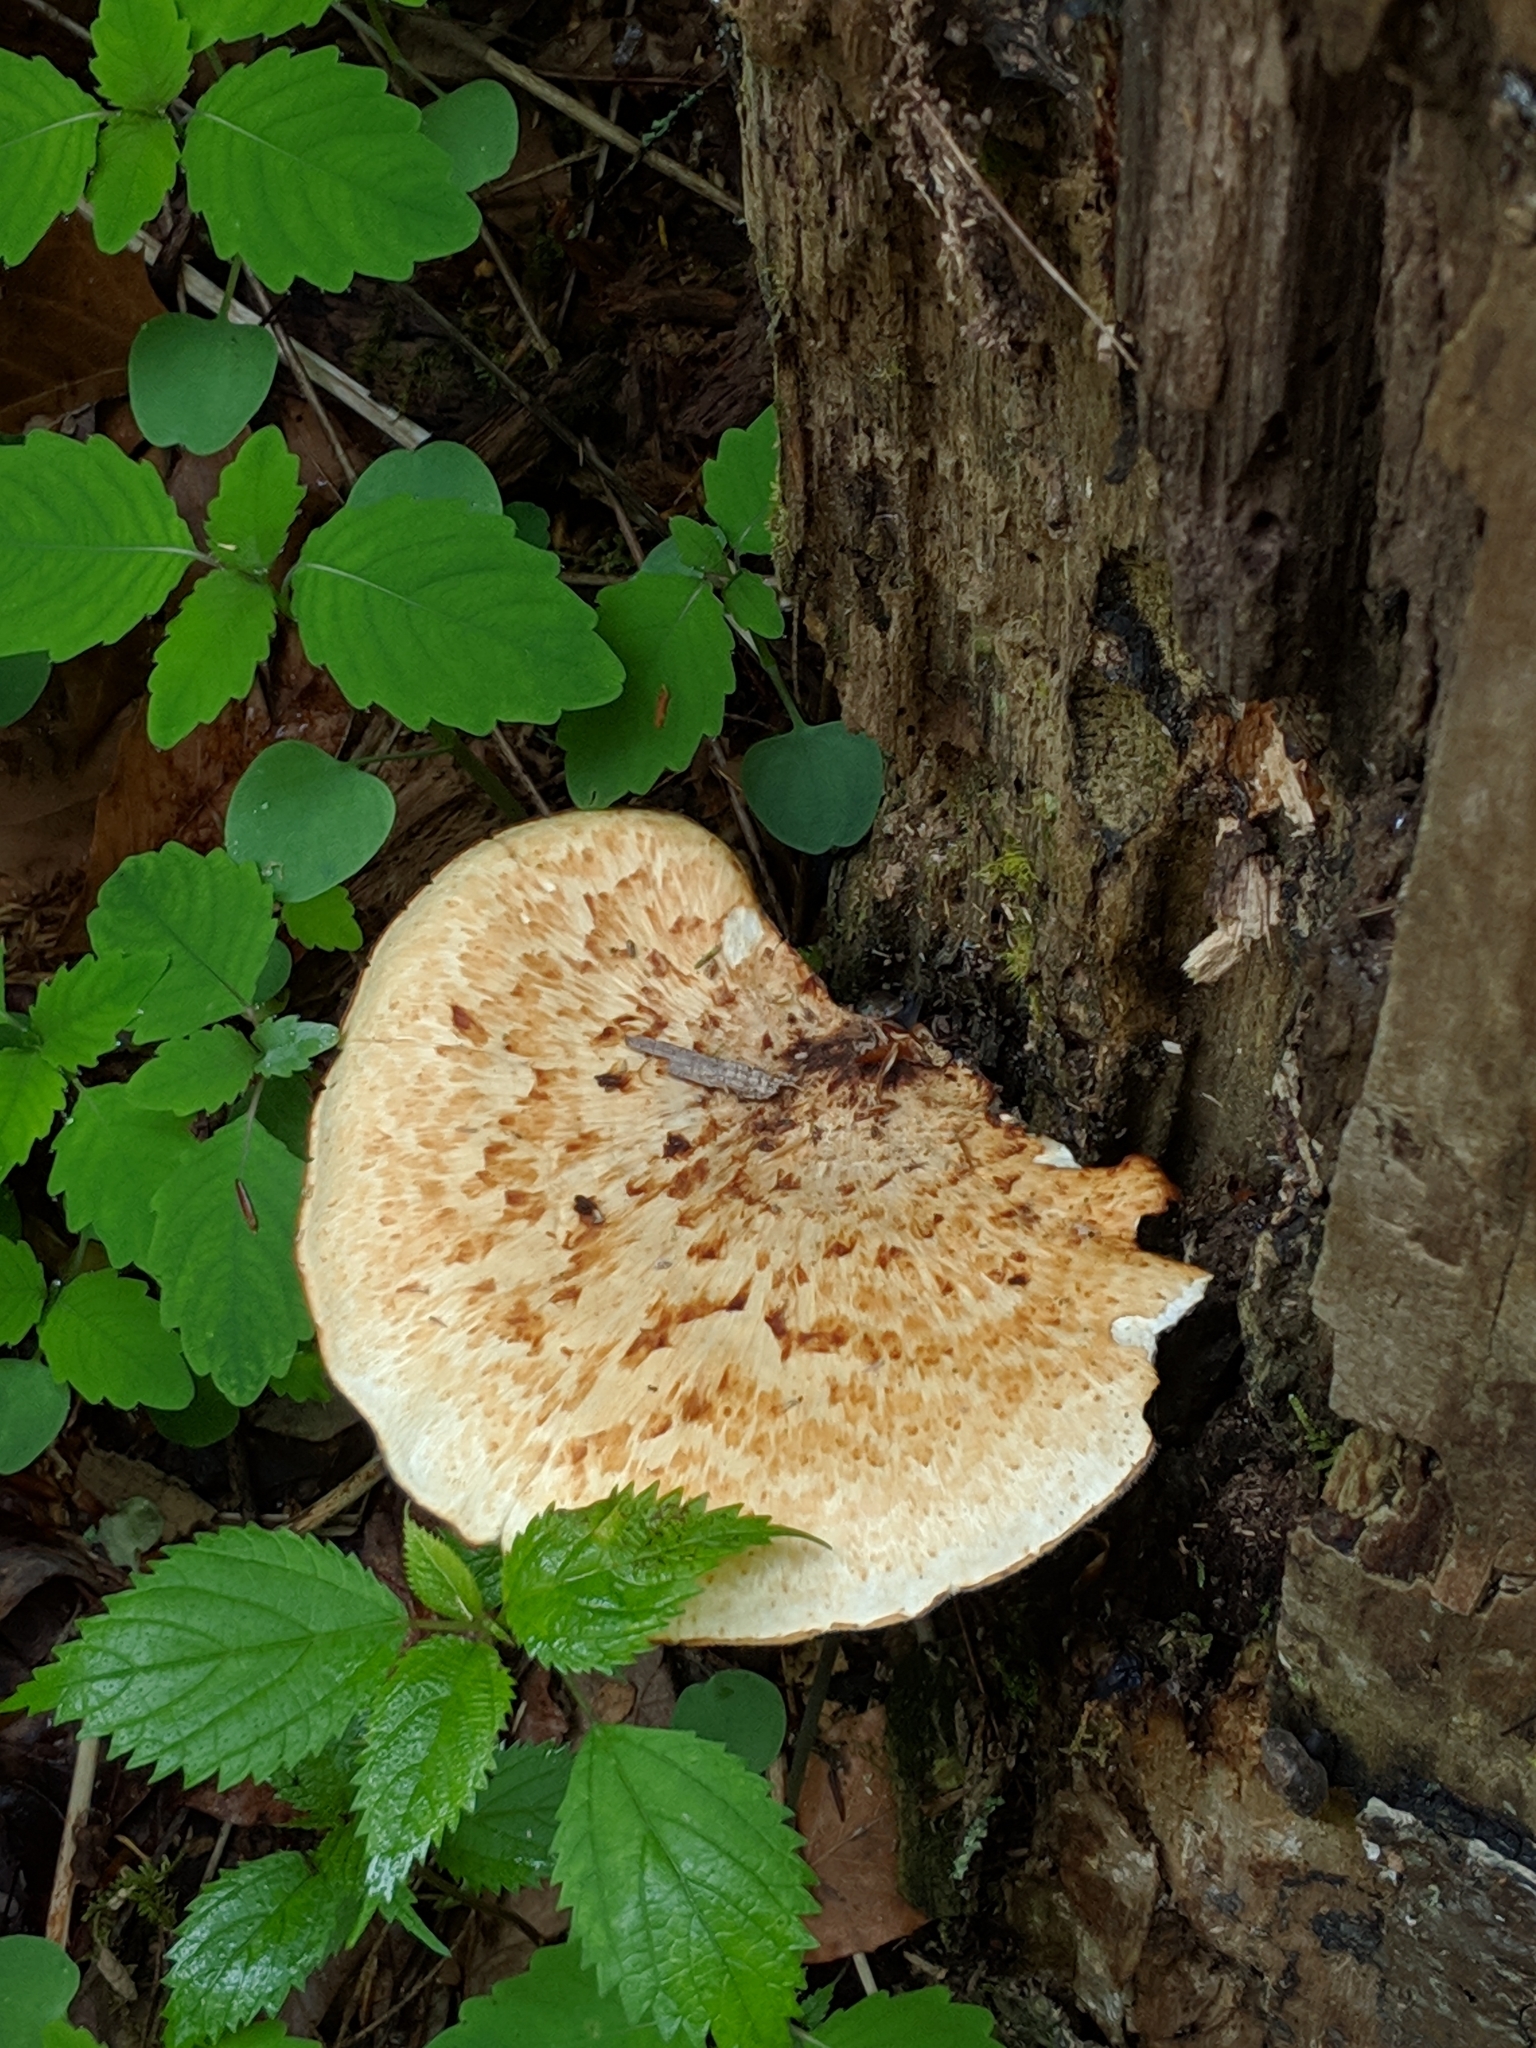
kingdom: Fungi
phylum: Basidiomycota
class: Agaricomycetes
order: Polyporales
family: Polyporaceae
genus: Cerioporus
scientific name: Cerioporus squamosus
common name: Dryad's saddle
